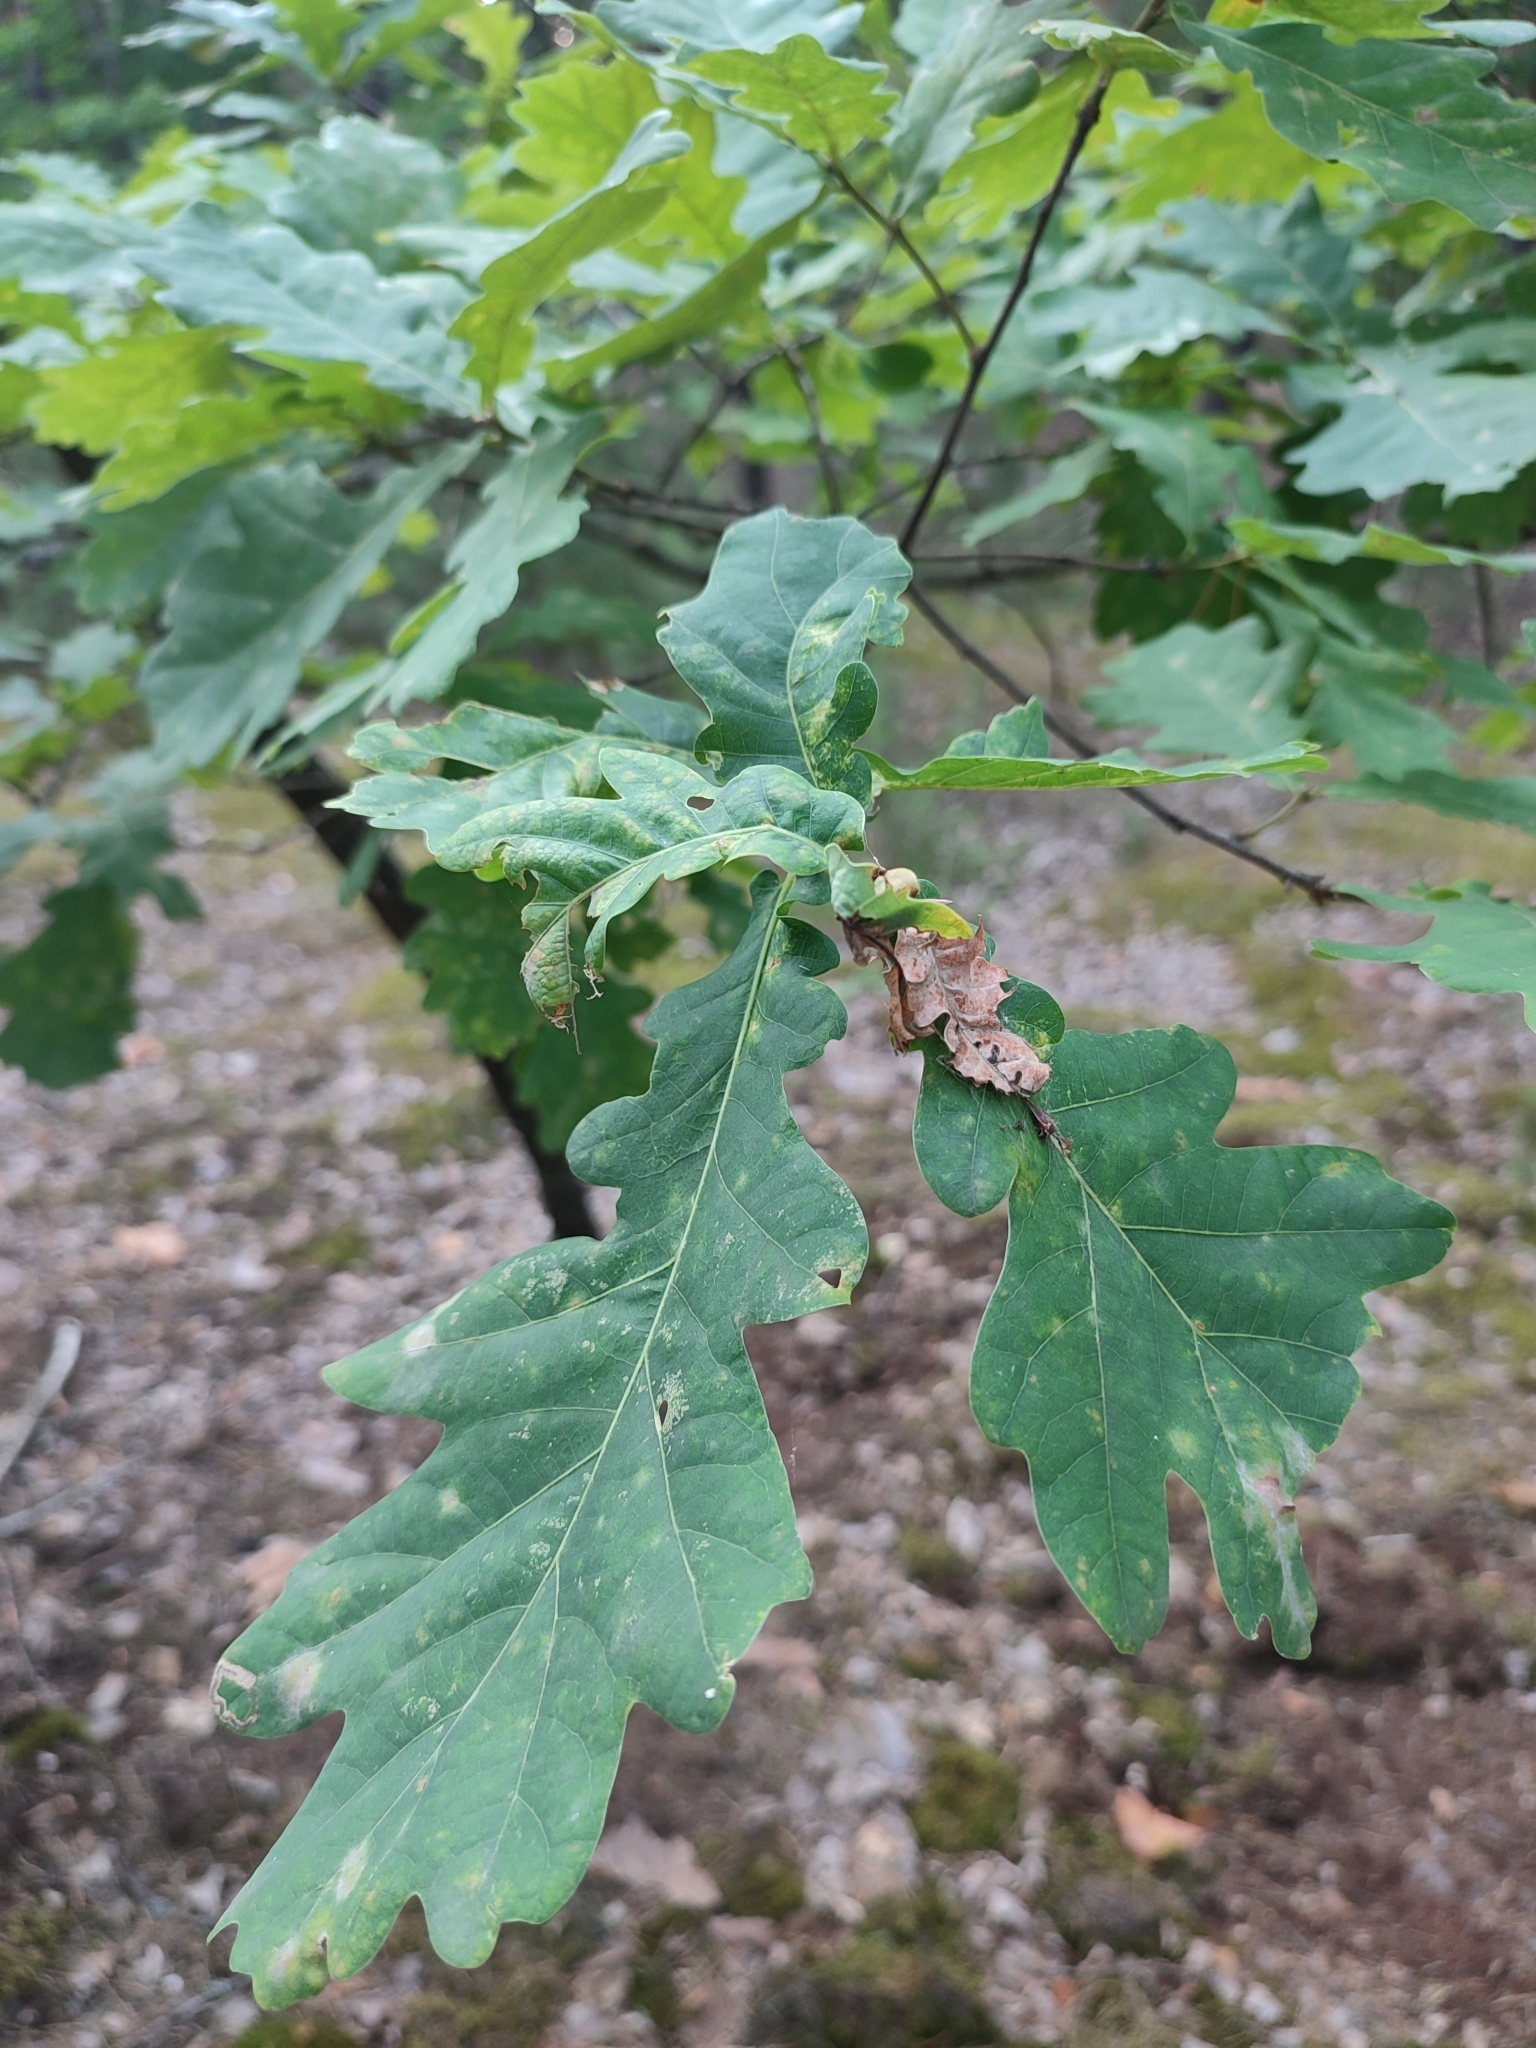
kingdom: Plantae
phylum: Tracheophyta
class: Magnoliopsida
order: Fagales
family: Fagaceae
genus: Quercus
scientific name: Quercus robur
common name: Pedunculate oak
